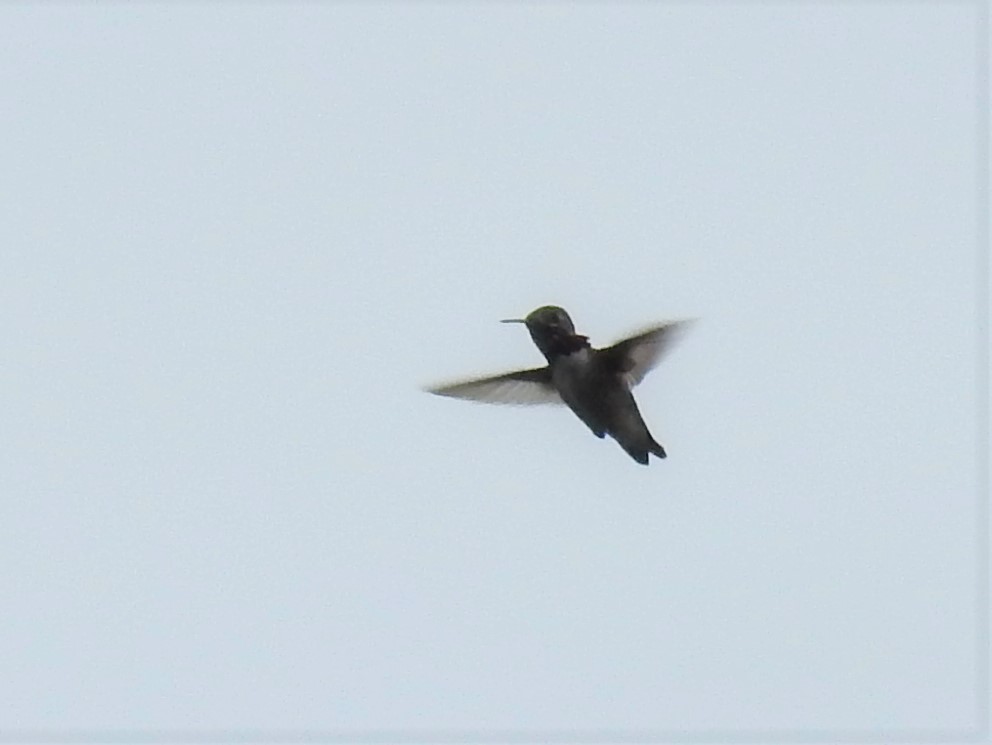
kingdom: Animalia
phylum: Chordata
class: Aves
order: Apodiformes
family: Trochilidae
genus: Selasphorus
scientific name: Selasphorus calliope
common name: Calliope hummingbird
